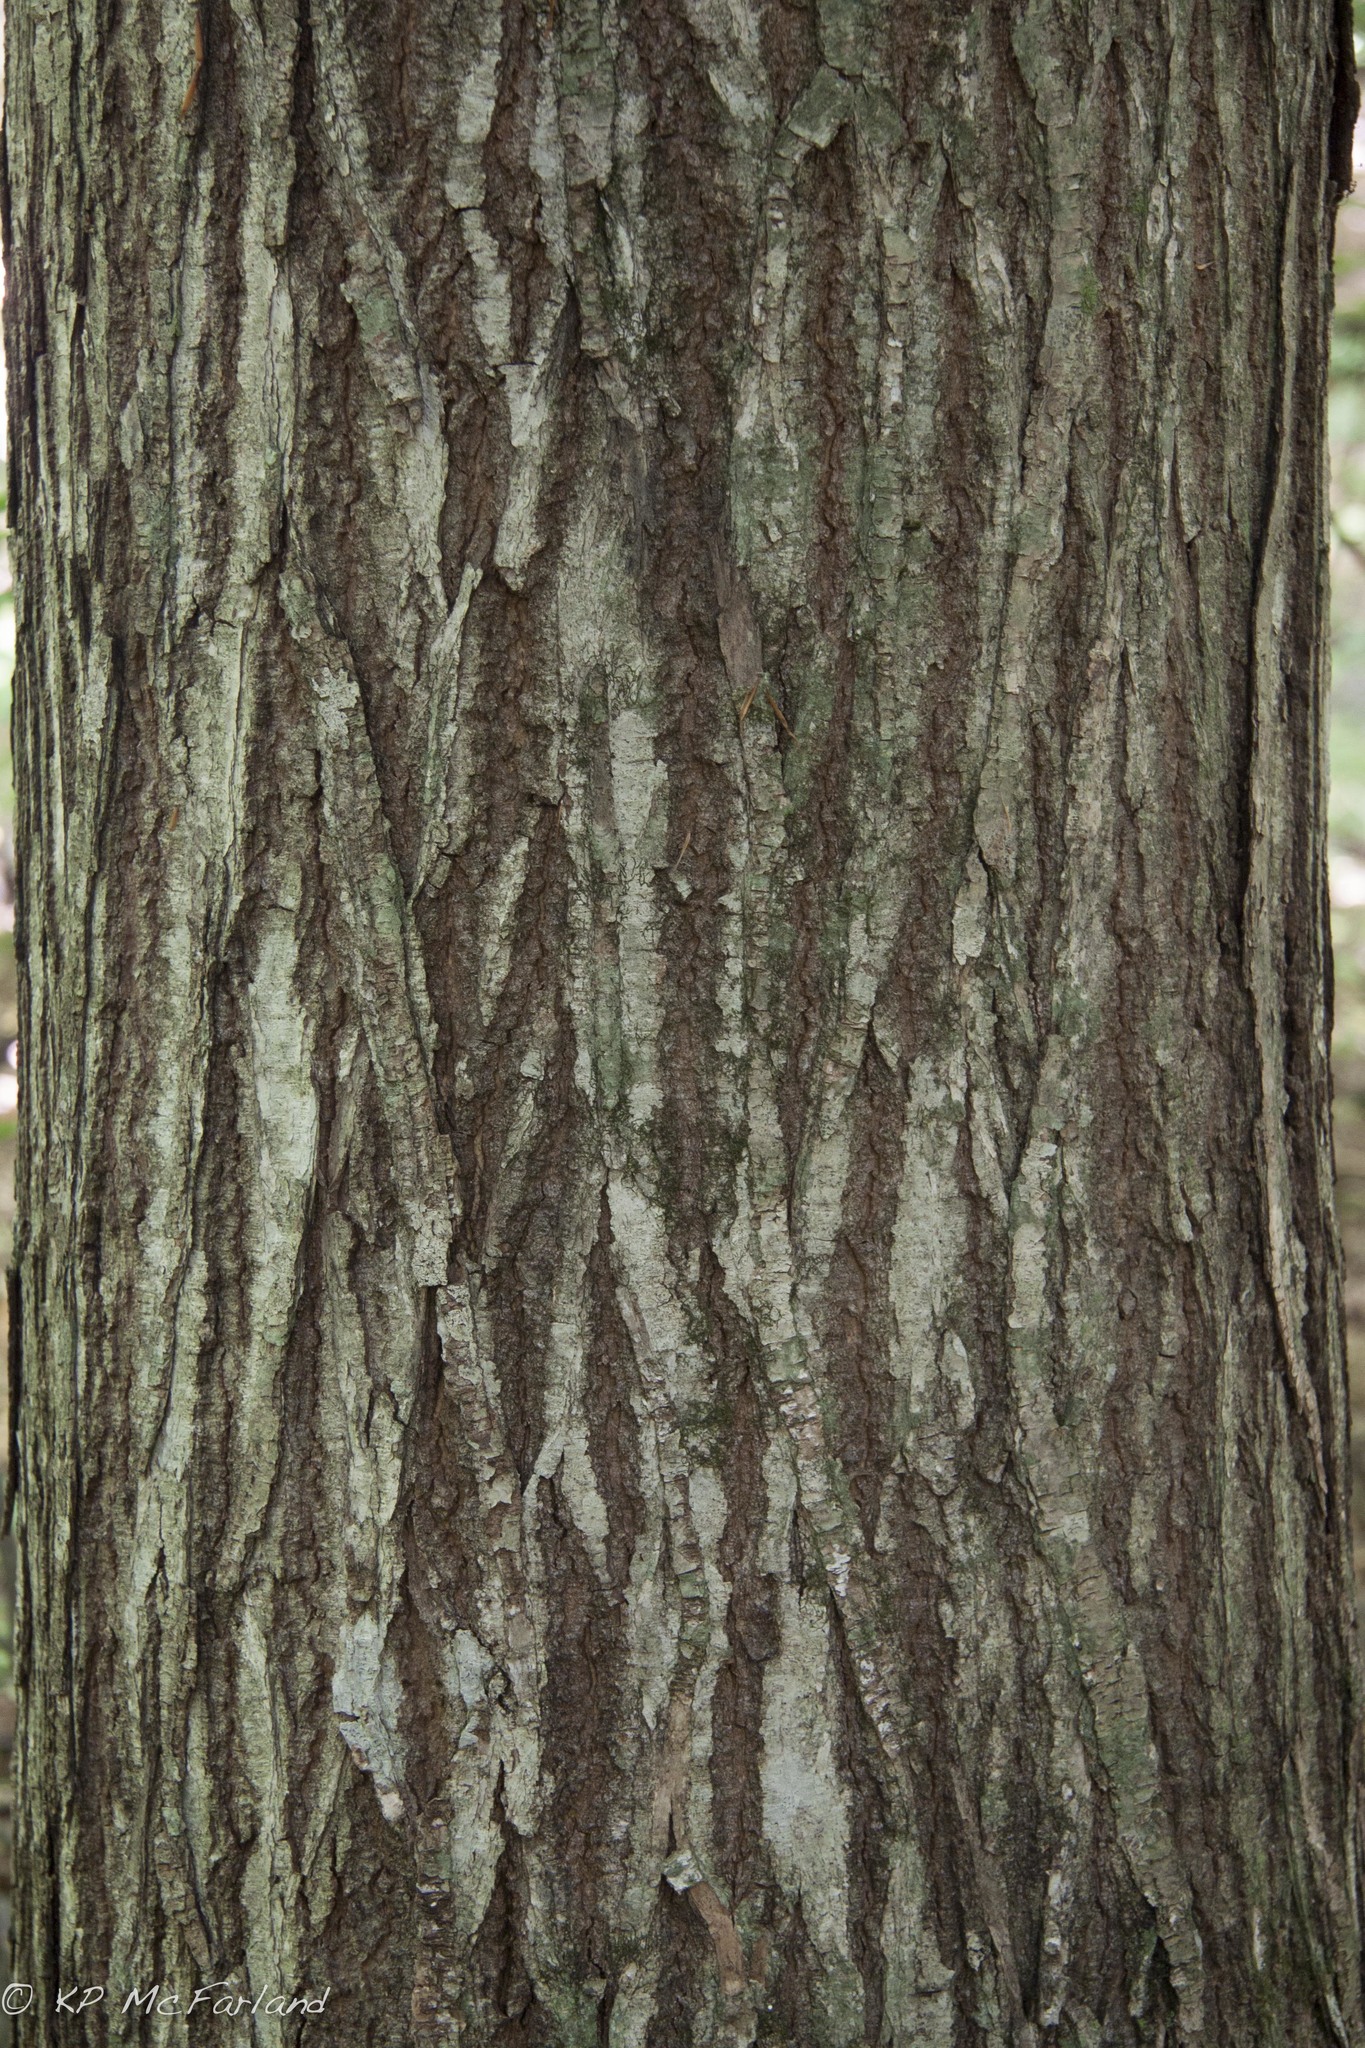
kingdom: Plantae
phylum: Tracheophyta
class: Magnoliopsida
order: Fagales
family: Fagaceae
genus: Castanea
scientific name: Castanea dentata
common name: American chestnut
